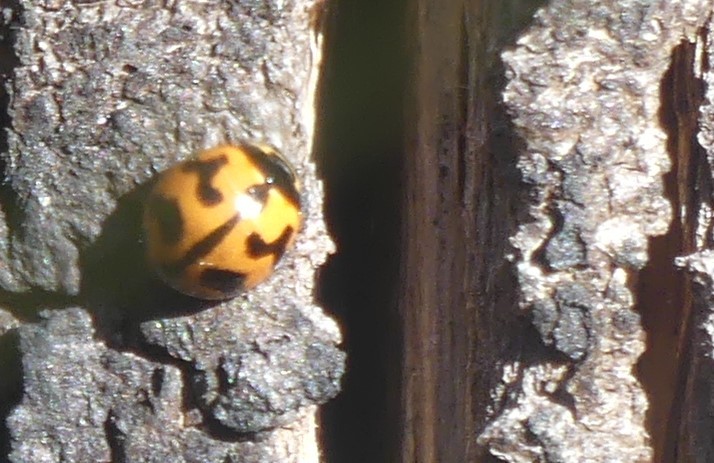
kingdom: Animalia
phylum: Arthropoda
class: Insecta
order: Coleoptera
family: Coccinellidae
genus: Coccinella
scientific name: Coccinella transversalis
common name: Transverse lady beetle
